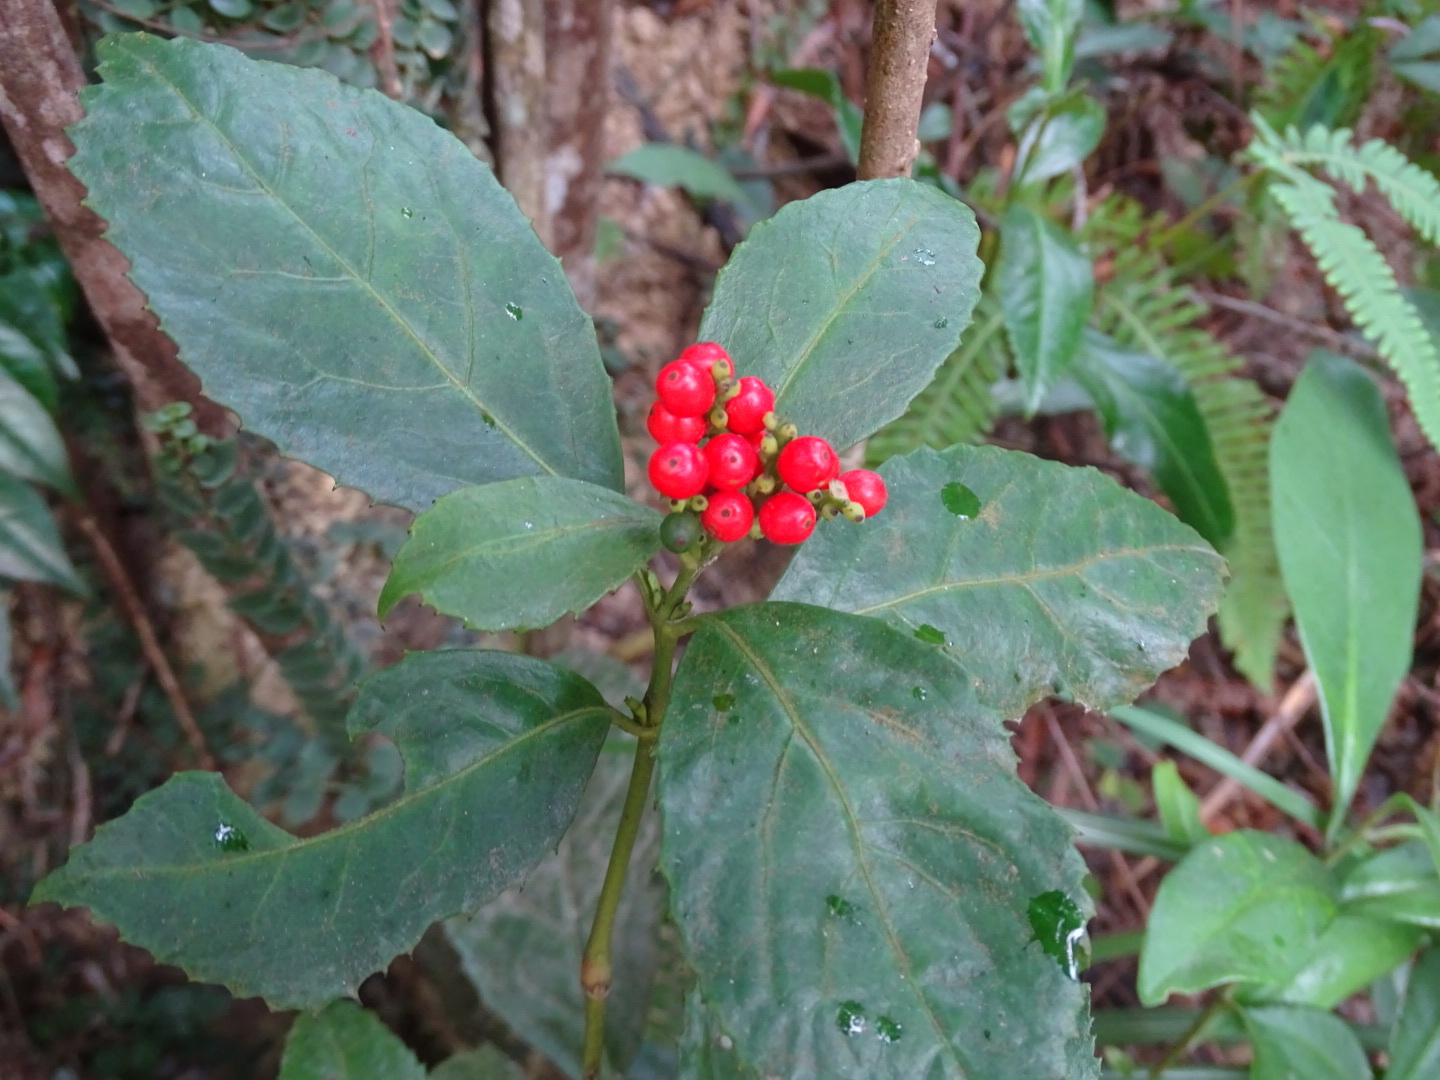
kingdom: Plantae
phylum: Tracheophyta
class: Magnoliopsida
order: Chloranthales
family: Chloranthaceae
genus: Sarcandra
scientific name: Sarcandra glabra
